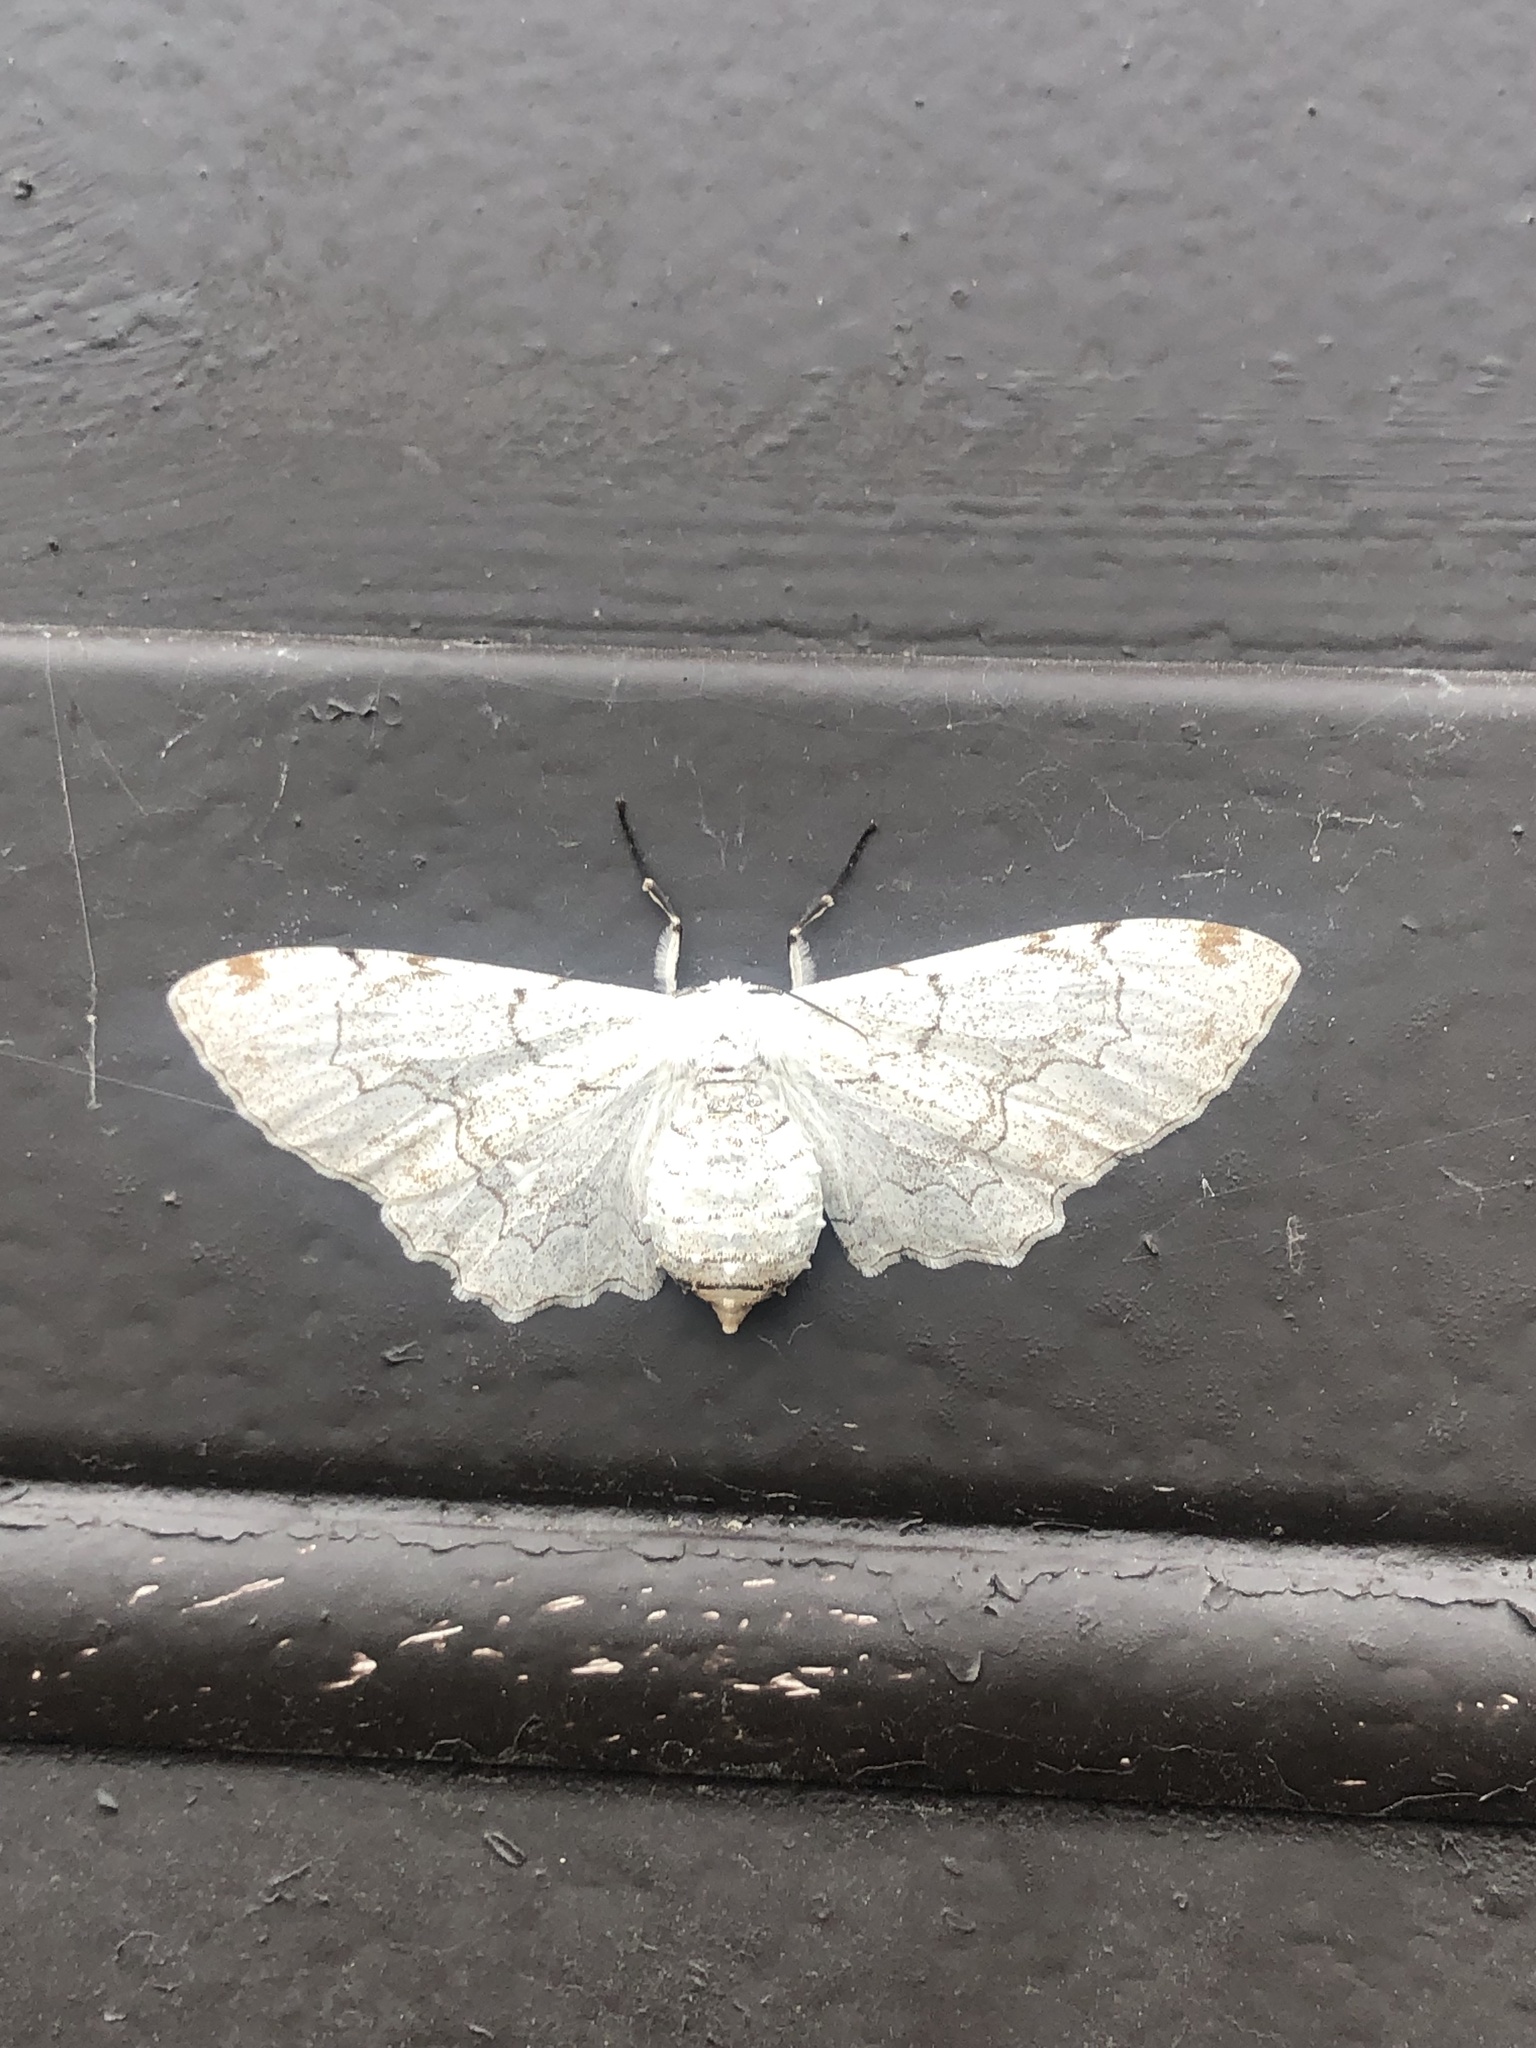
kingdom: Animalia
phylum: Arthropoda
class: Insecta
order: Lepidoptera
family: Geometridae
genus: Thyrinteina
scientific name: Thyrinteina arnobia
